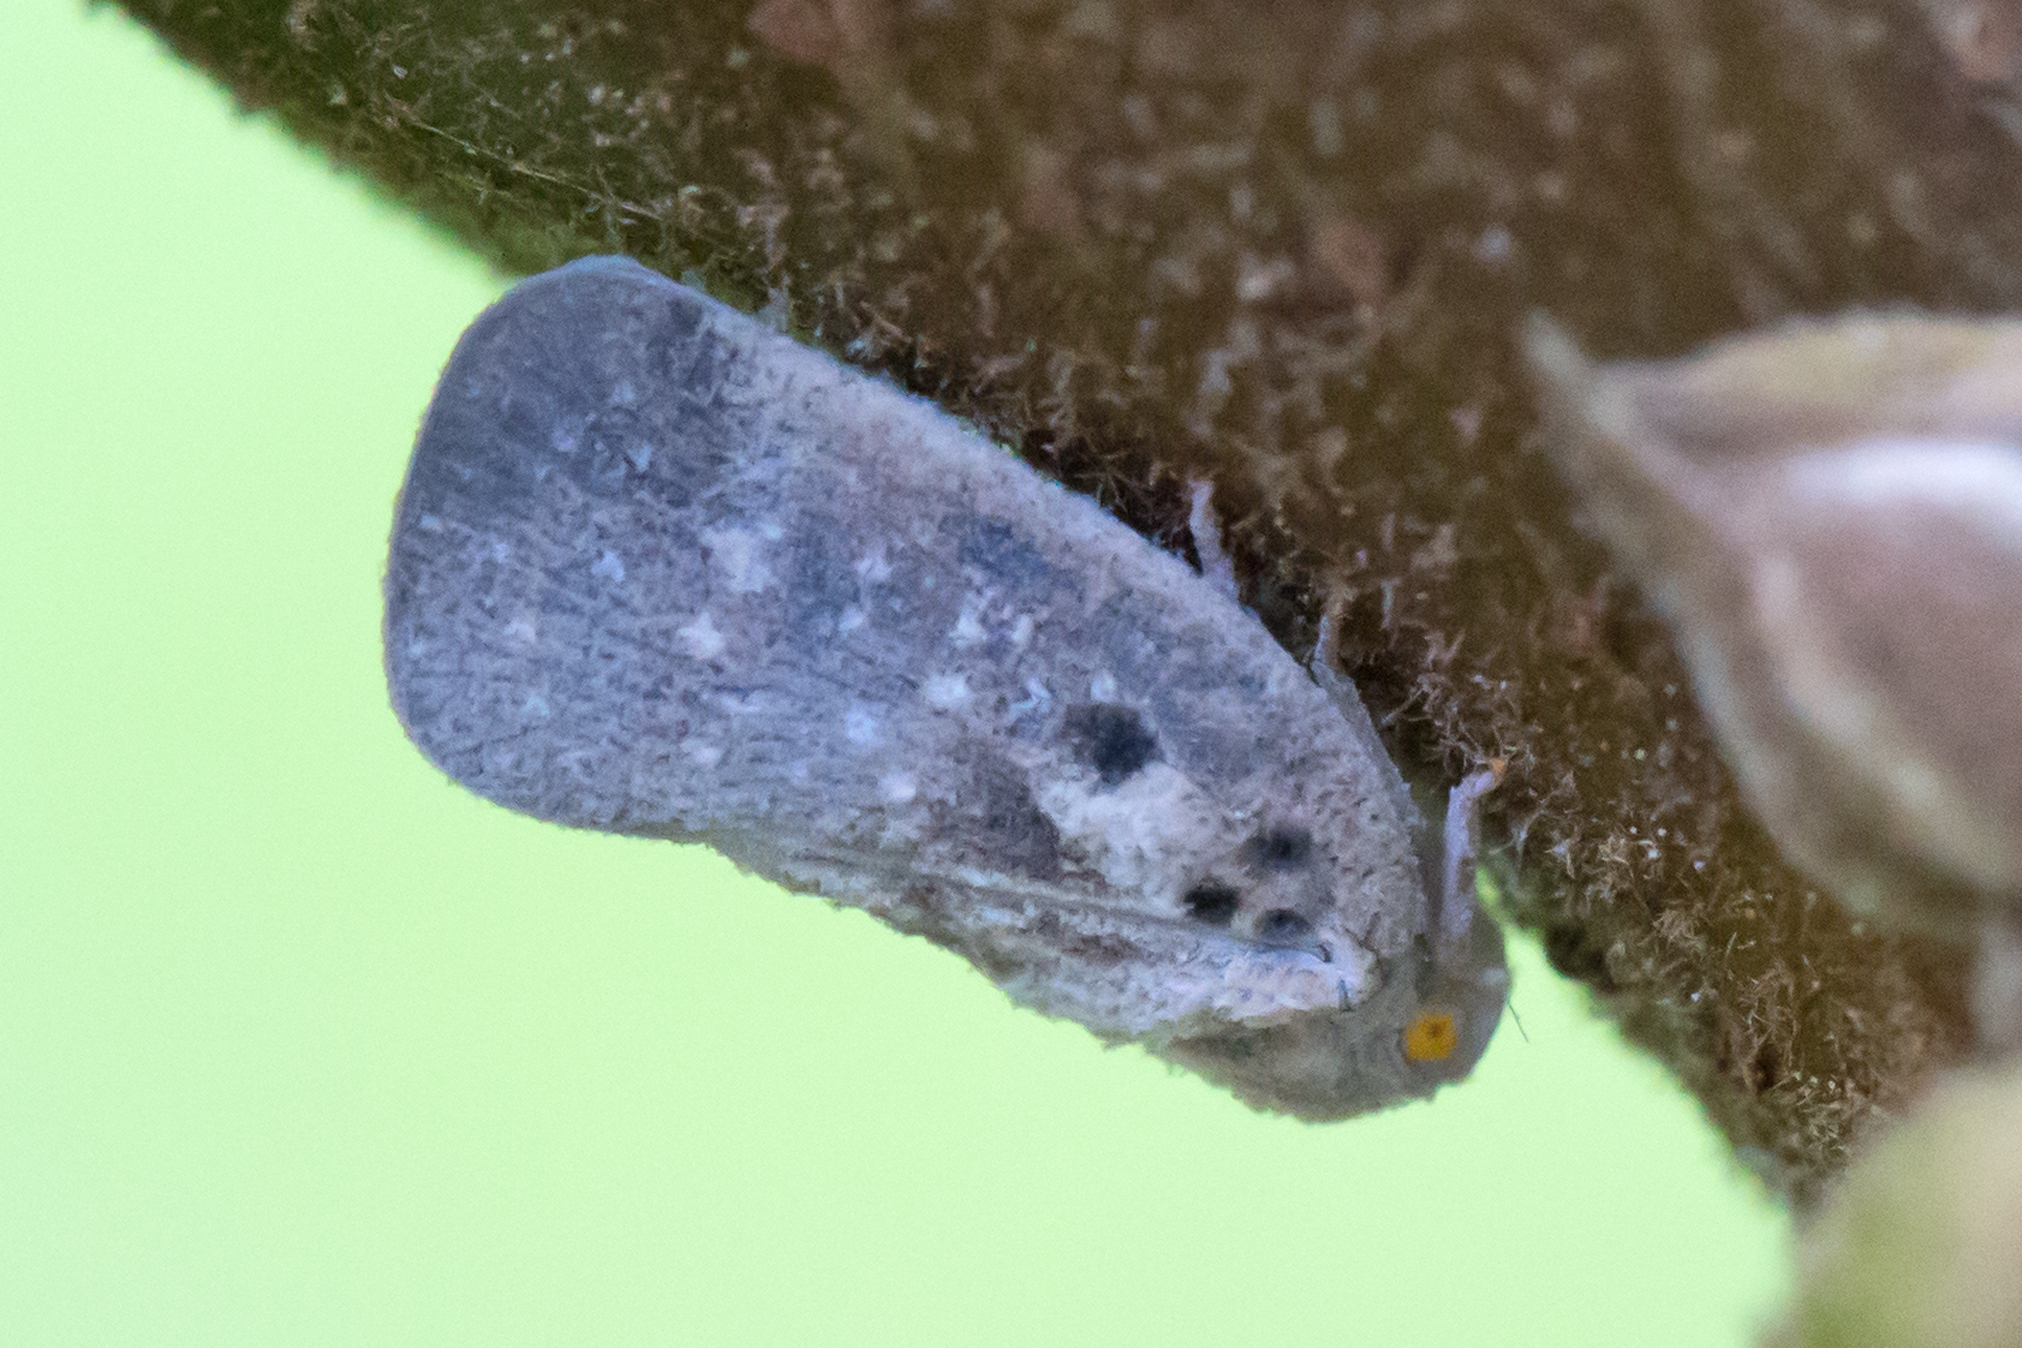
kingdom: Animalia
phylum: Arthropoda
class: Insecta
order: Hemiptera
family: Flatidae
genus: Metcalfa
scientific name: Metcalfa pruinosa
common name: Citrus flatid planthopper
